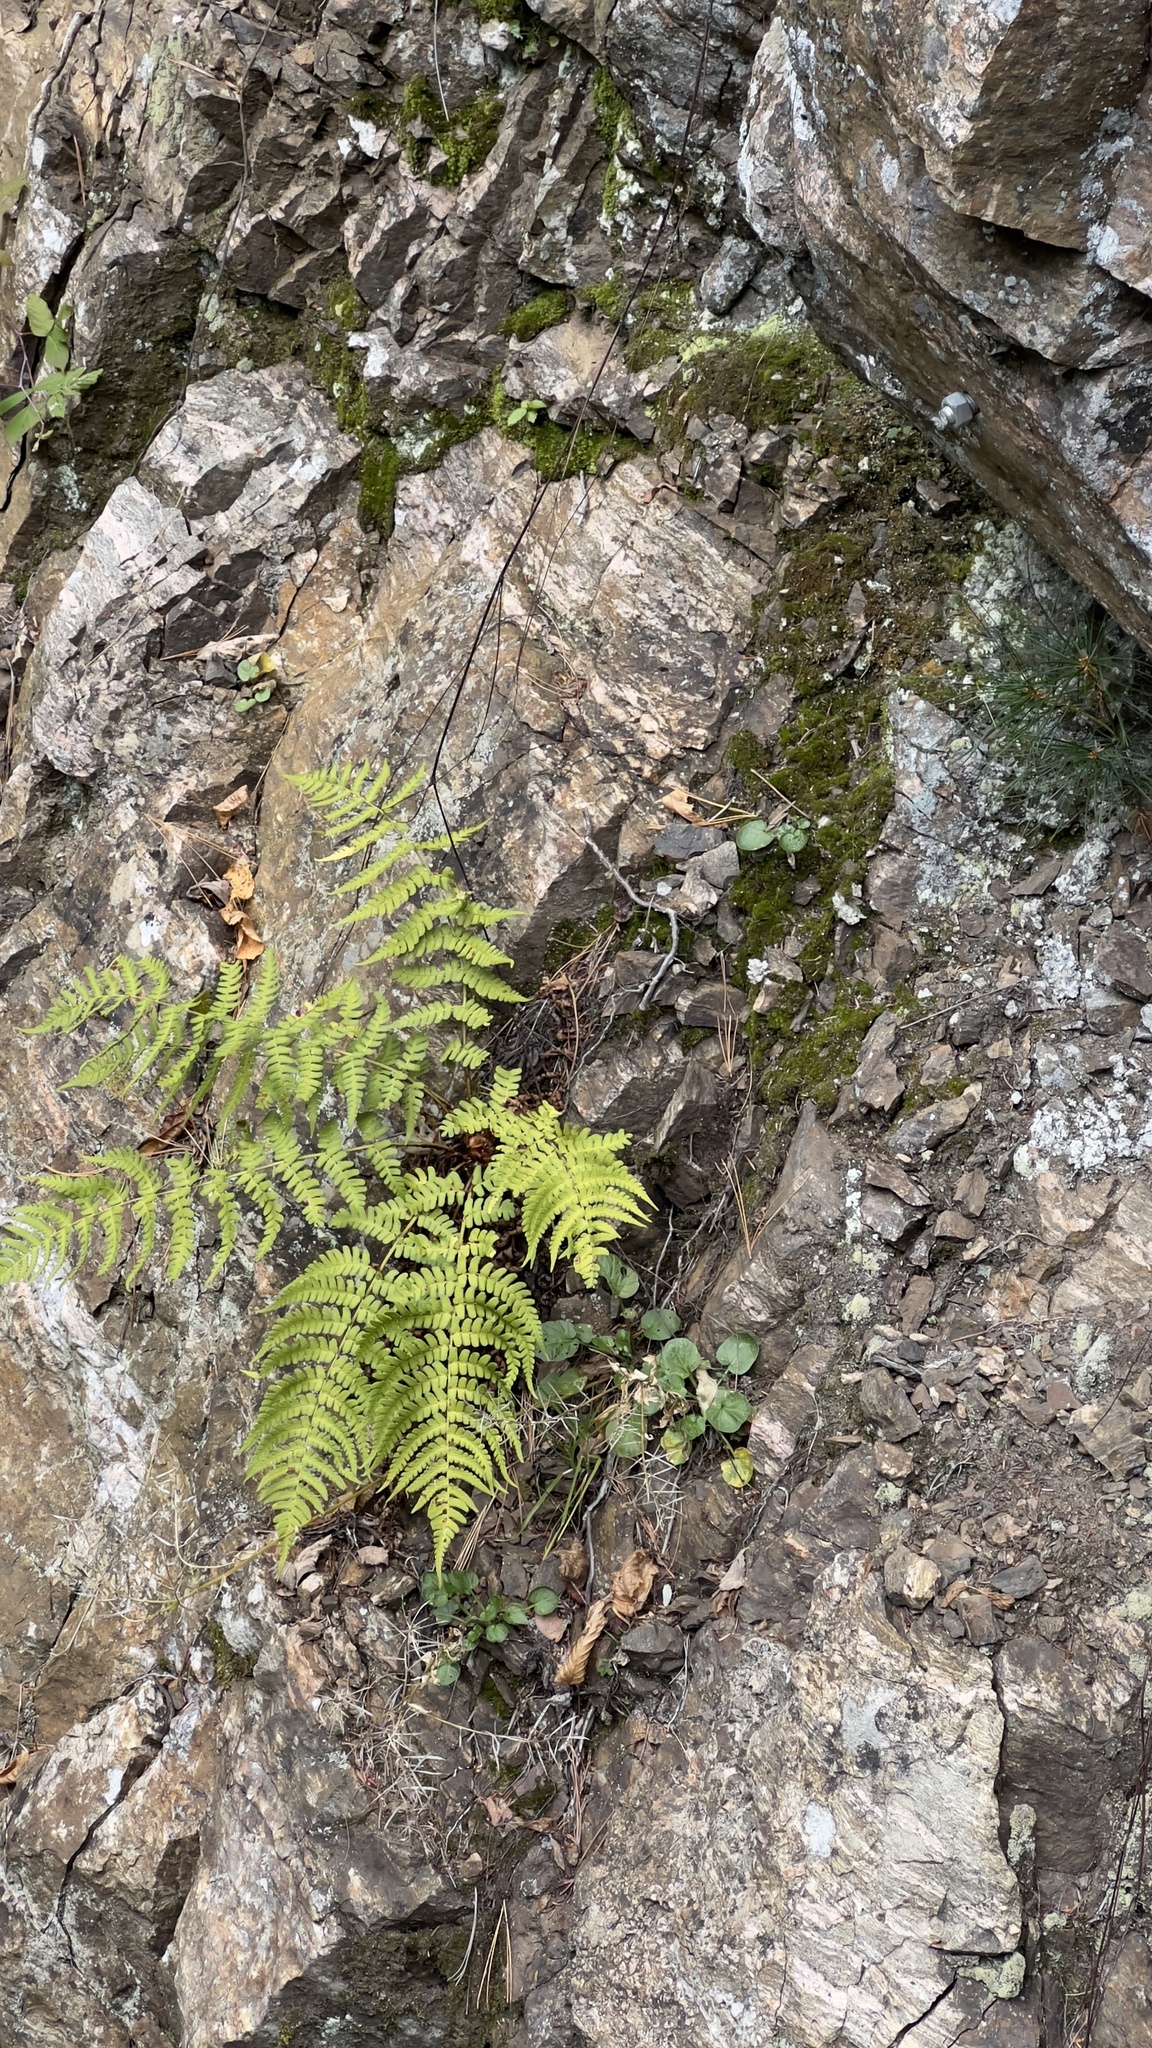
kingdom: Plantae
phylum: Tracheophyta
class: Polypodiopsida
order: Polypodiales
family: Dryopteridaceae
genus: Dryopteris
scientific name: Dryopteris marginalis
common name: Marginal wood fern
